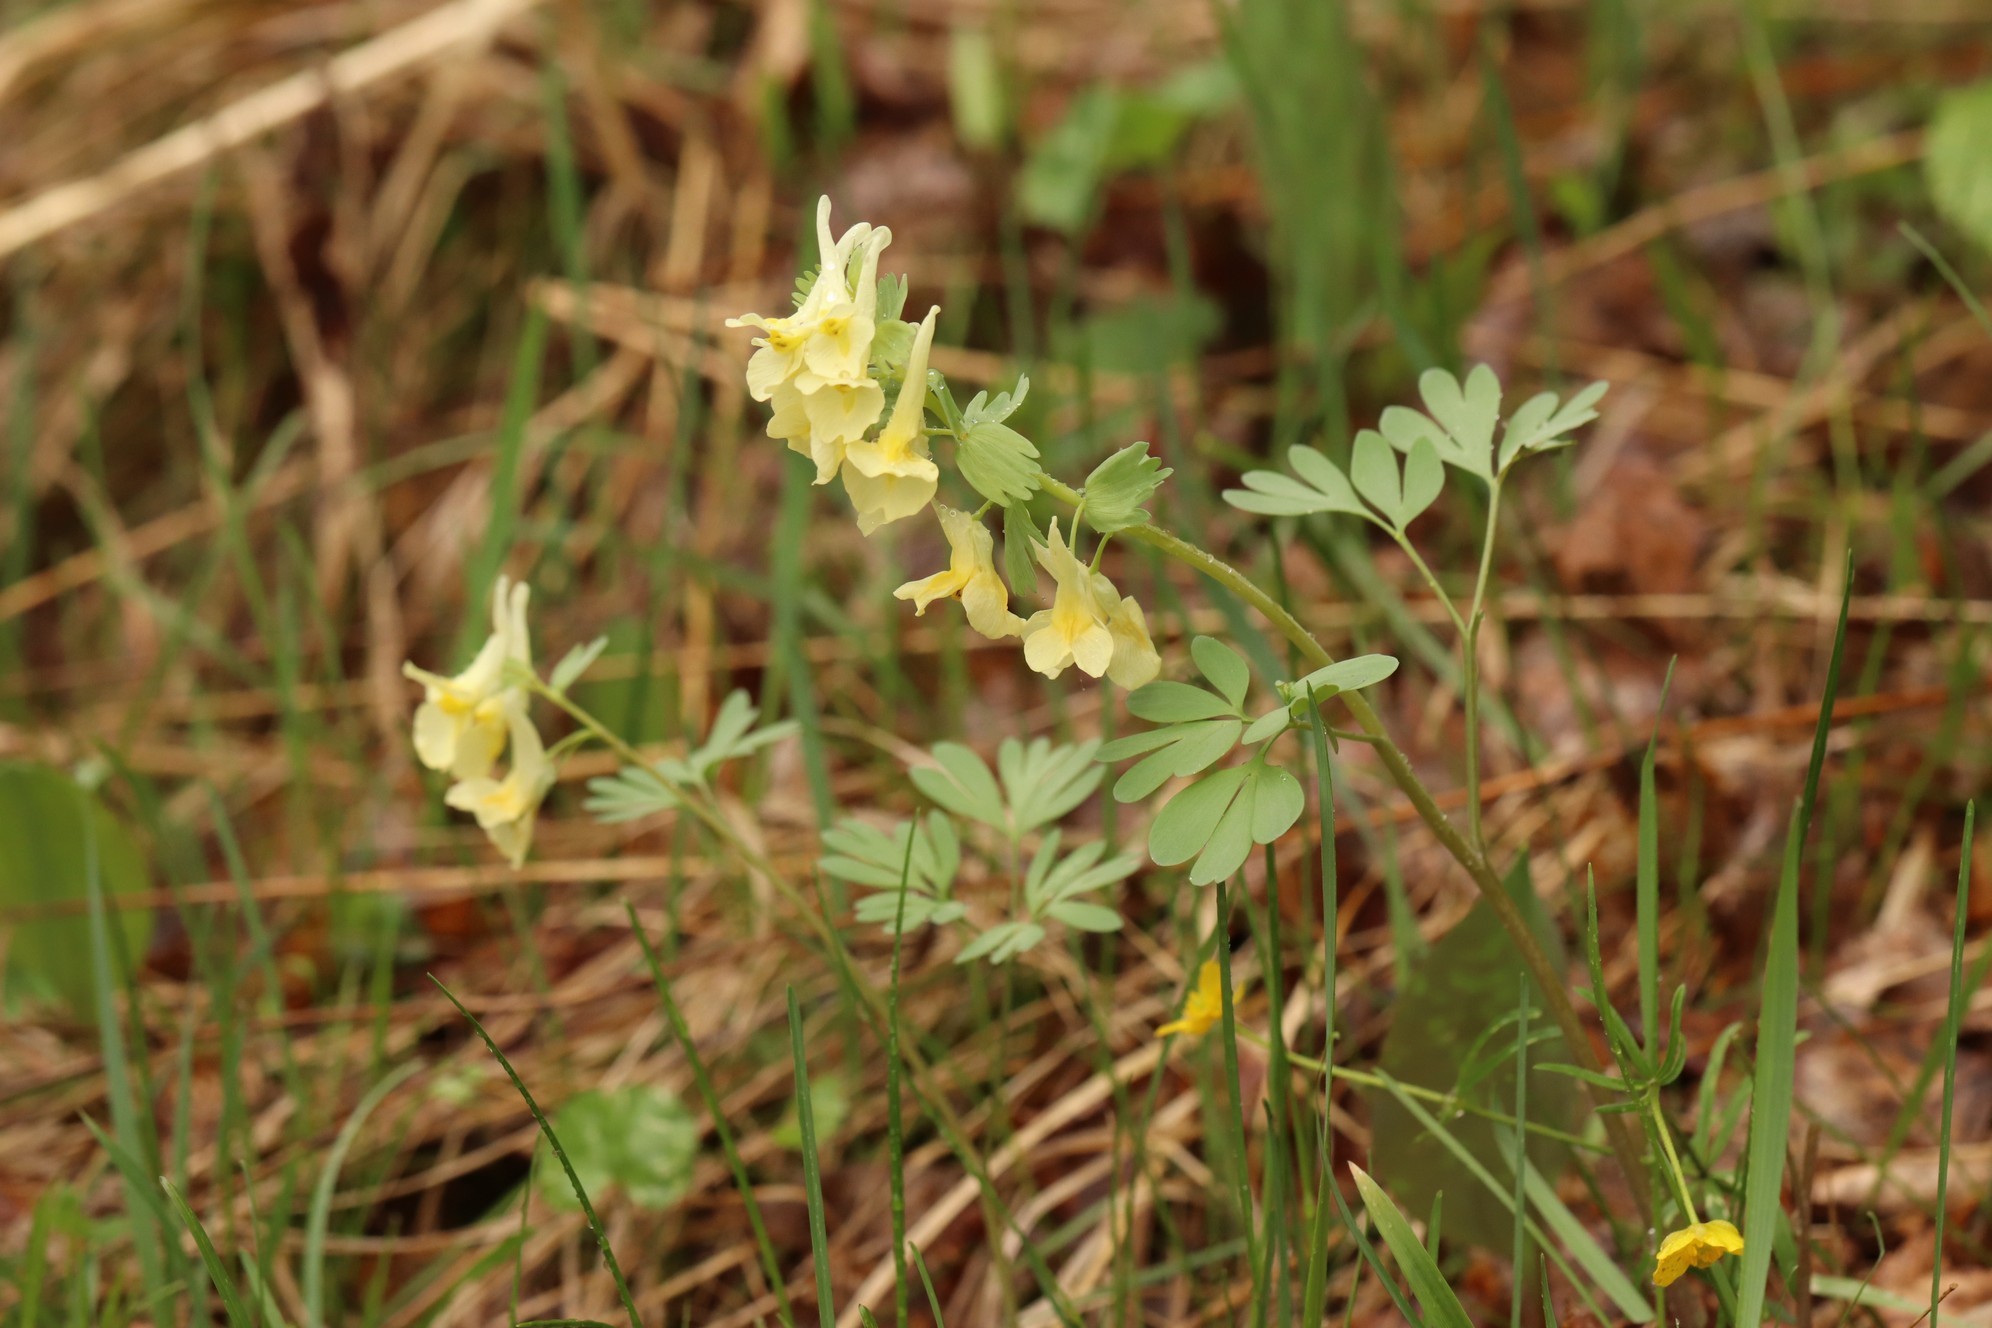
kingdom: Plantae
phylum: Tracheophyta
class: Magnoliopsida
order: Ranunculales
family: Papaveraceae
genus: Corydalis
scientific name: Corydalis bracteata
